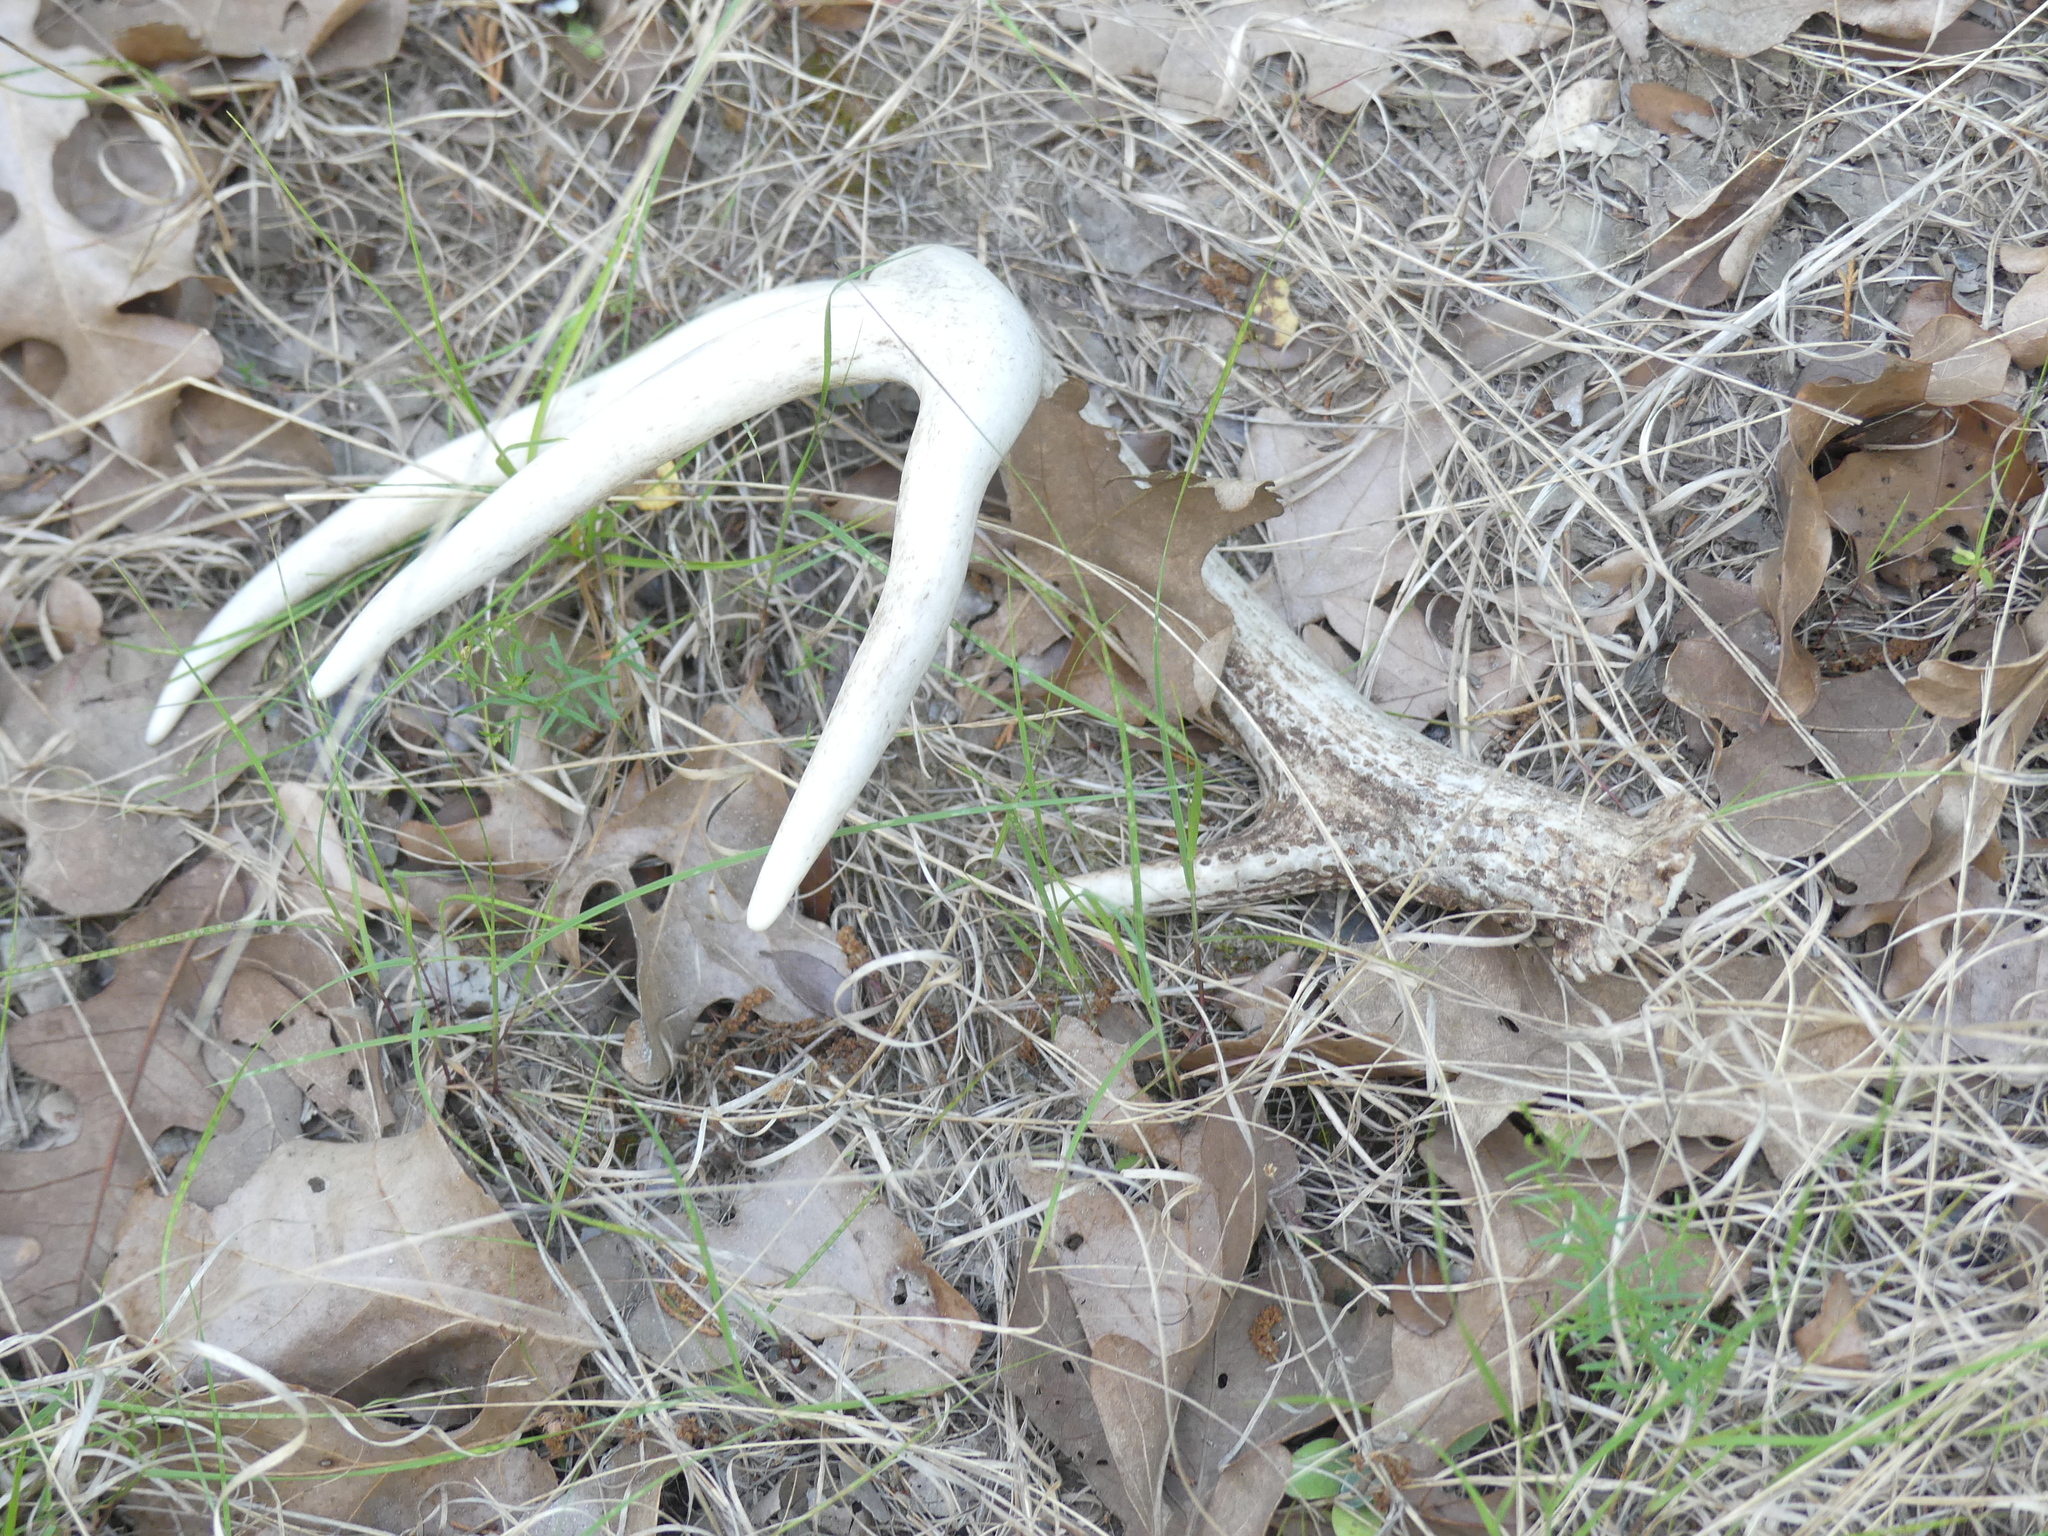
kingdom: Animalia
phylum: Chordata
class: Mammalia
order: Artiodactyla
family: Cervidae
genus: Odocoileus
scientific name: Odocoileus virginianus
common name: White-tailed deer
